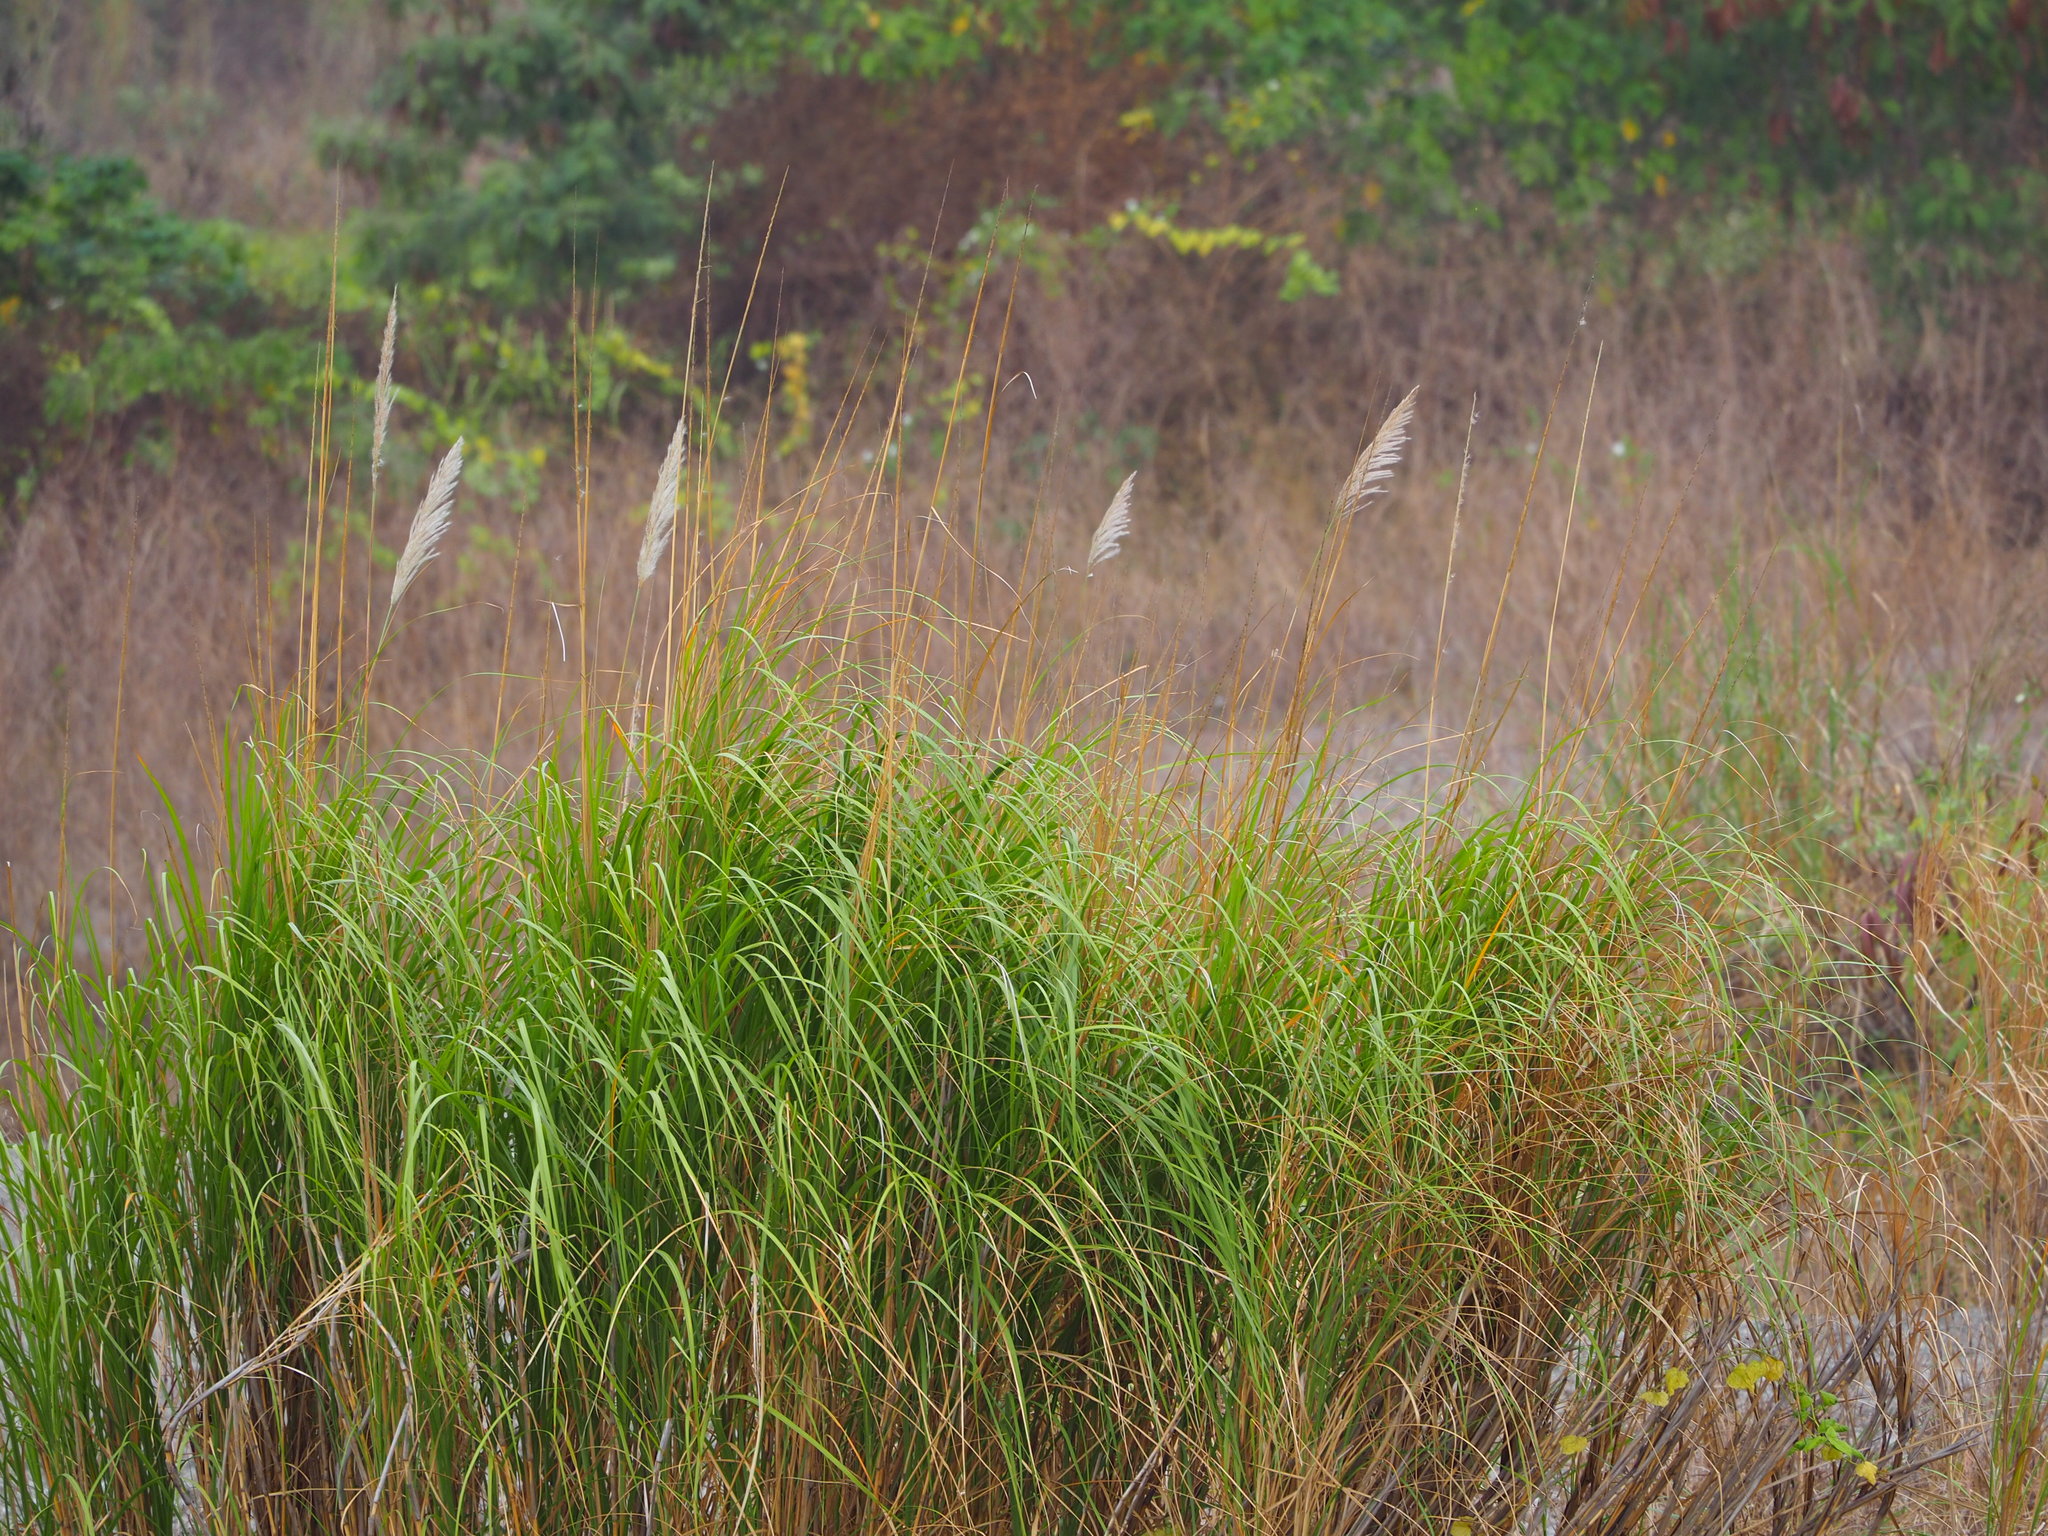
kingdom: Plantae
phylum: Tracheophyta
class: Liliopsida
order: Poales
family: Poaceae
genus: Saccharum
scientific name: Saccharum spontaneum
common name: Wild sugarcane
